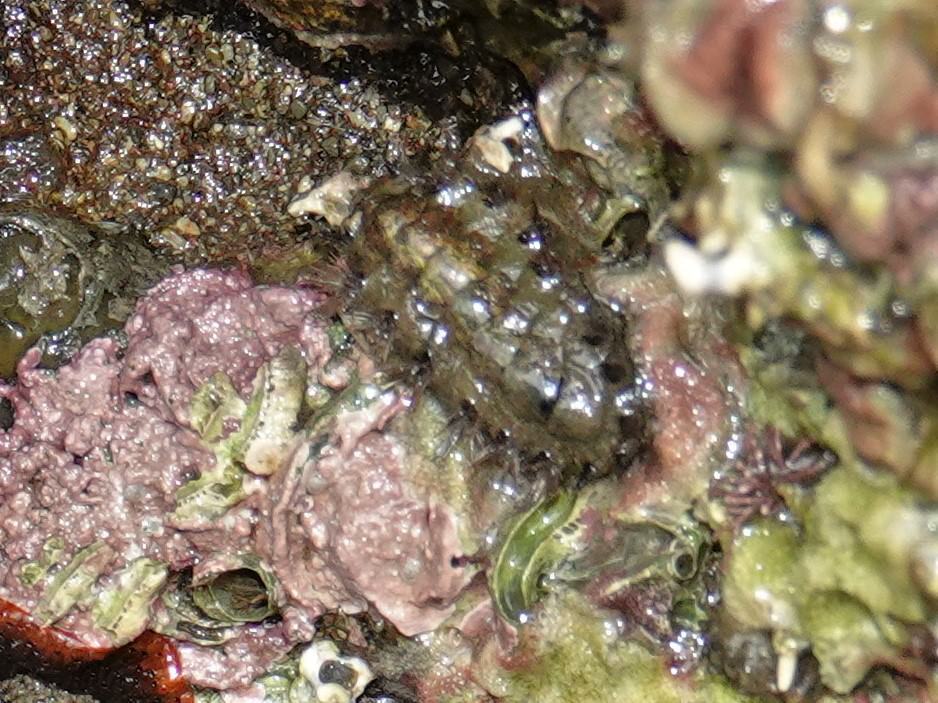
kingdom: Animalia
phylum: Mollusca
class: Polyplacophora
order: Chitonida
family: Acanthochitonidae
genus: Acanthochitona
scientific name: Acanthochitona zelandica
